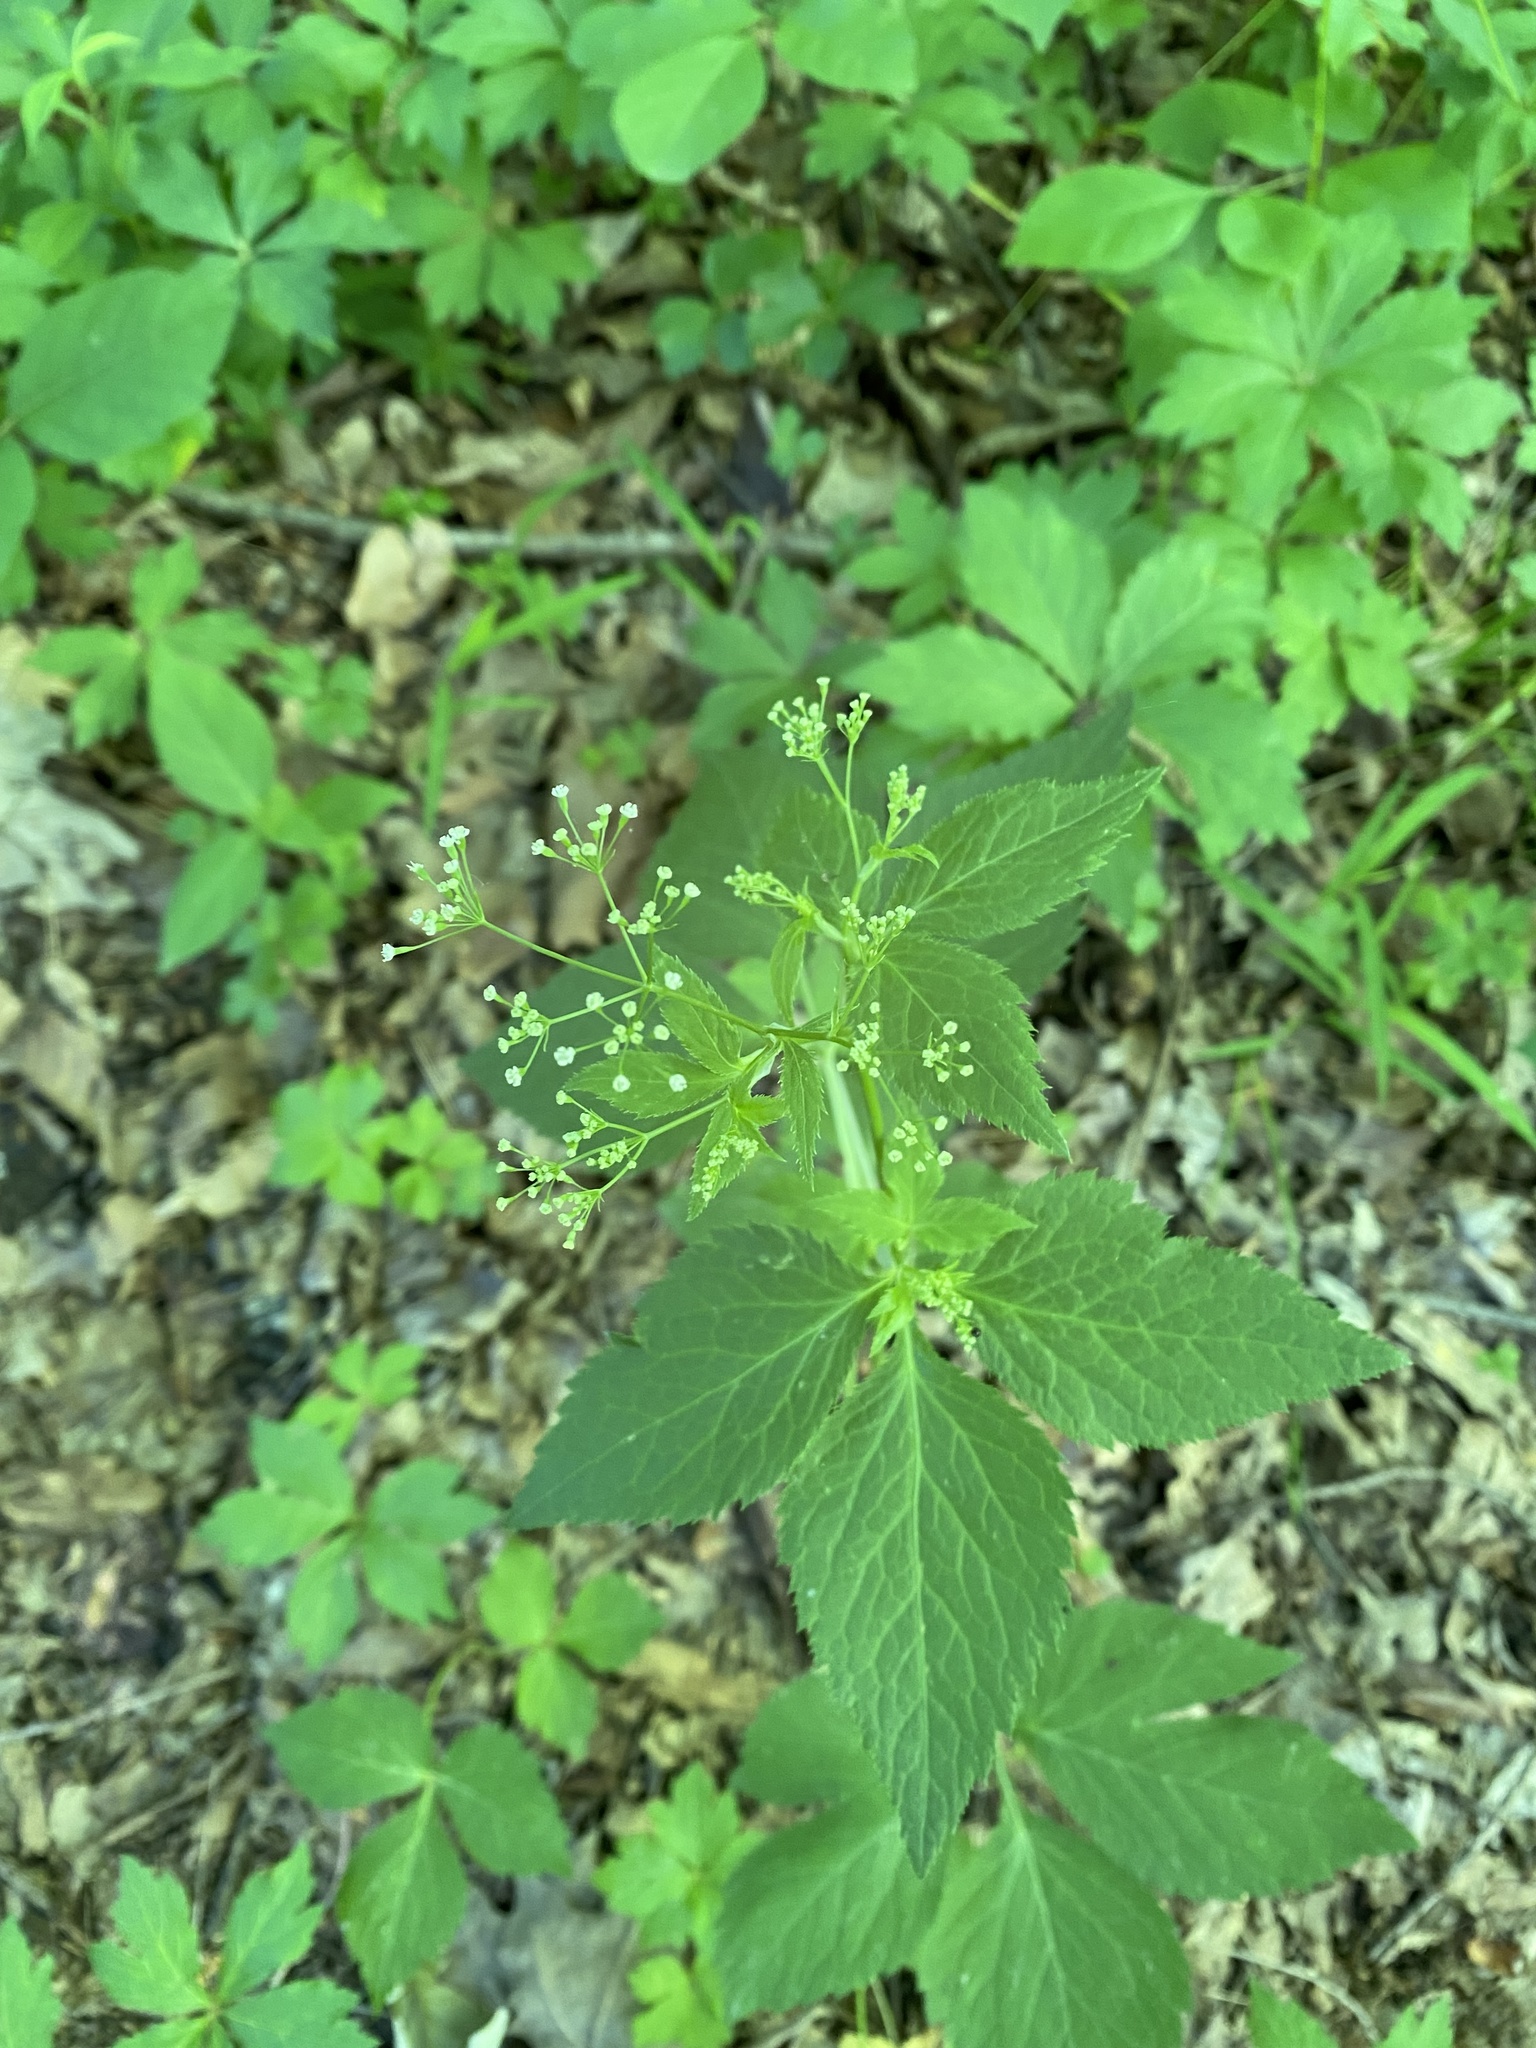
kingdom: Plantae
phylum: Tracheophyta
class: Magnoliopsida
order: Apiales
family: Apiaceae
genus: Cryptotaenia
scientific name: Cryptotaenia canadensis
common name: Honewort
